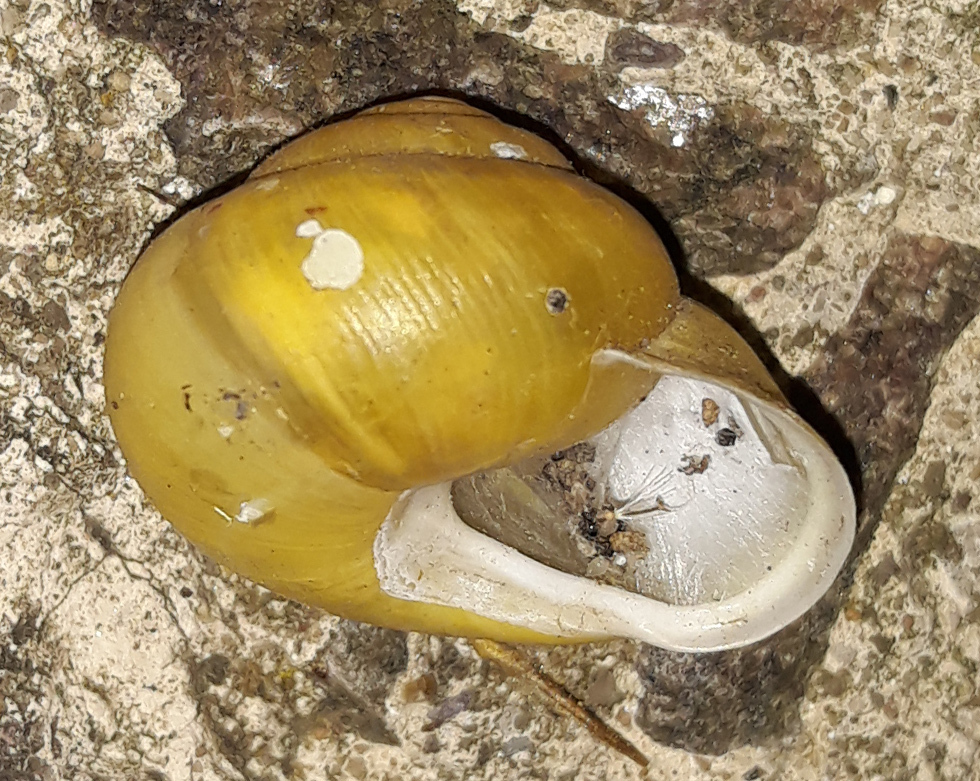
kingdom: Animalia
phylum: Mollusca
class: Gastropoda
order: Stylommatophora
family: Helicidae
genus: Cepaea
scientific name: Cepaea hortensis
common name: White-lip gardensnail
